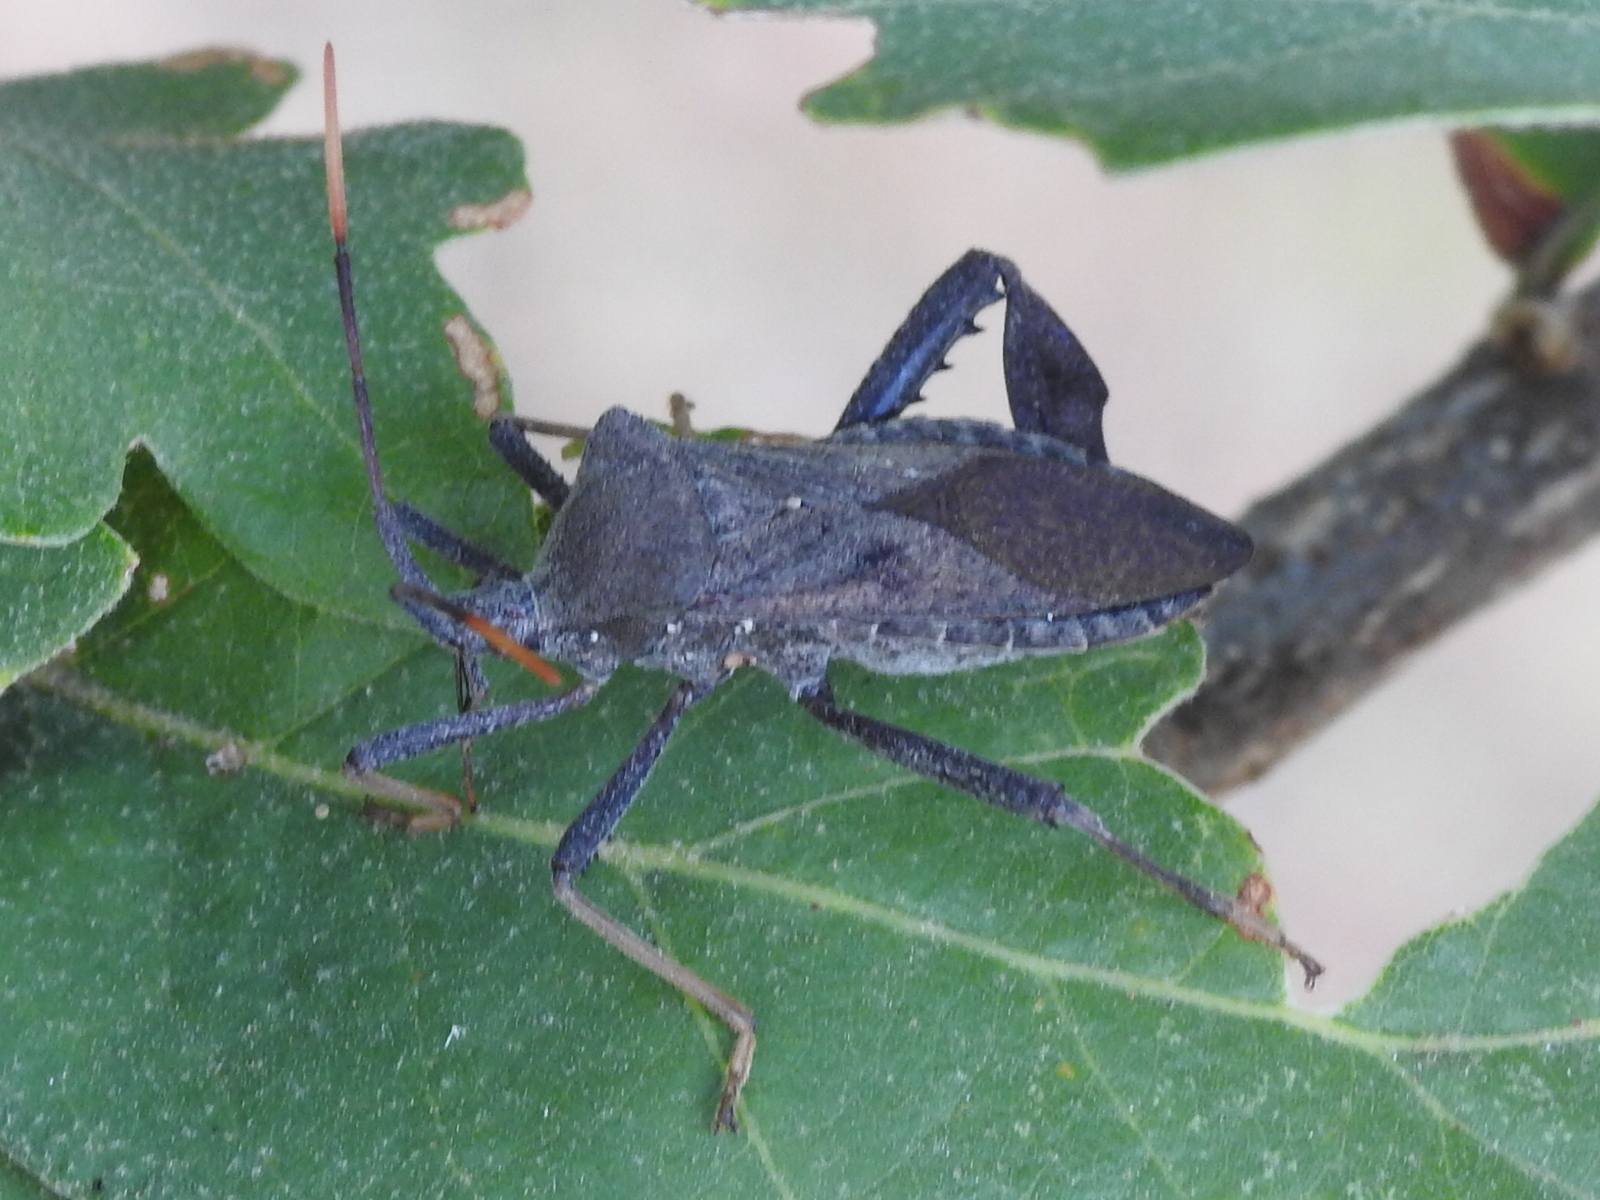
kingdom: Animalia
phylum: Arthropoda
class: Insecta
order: Hemiptera
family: Coreidae
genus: Acanthocephala
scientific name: Acanthocephala terminalis
